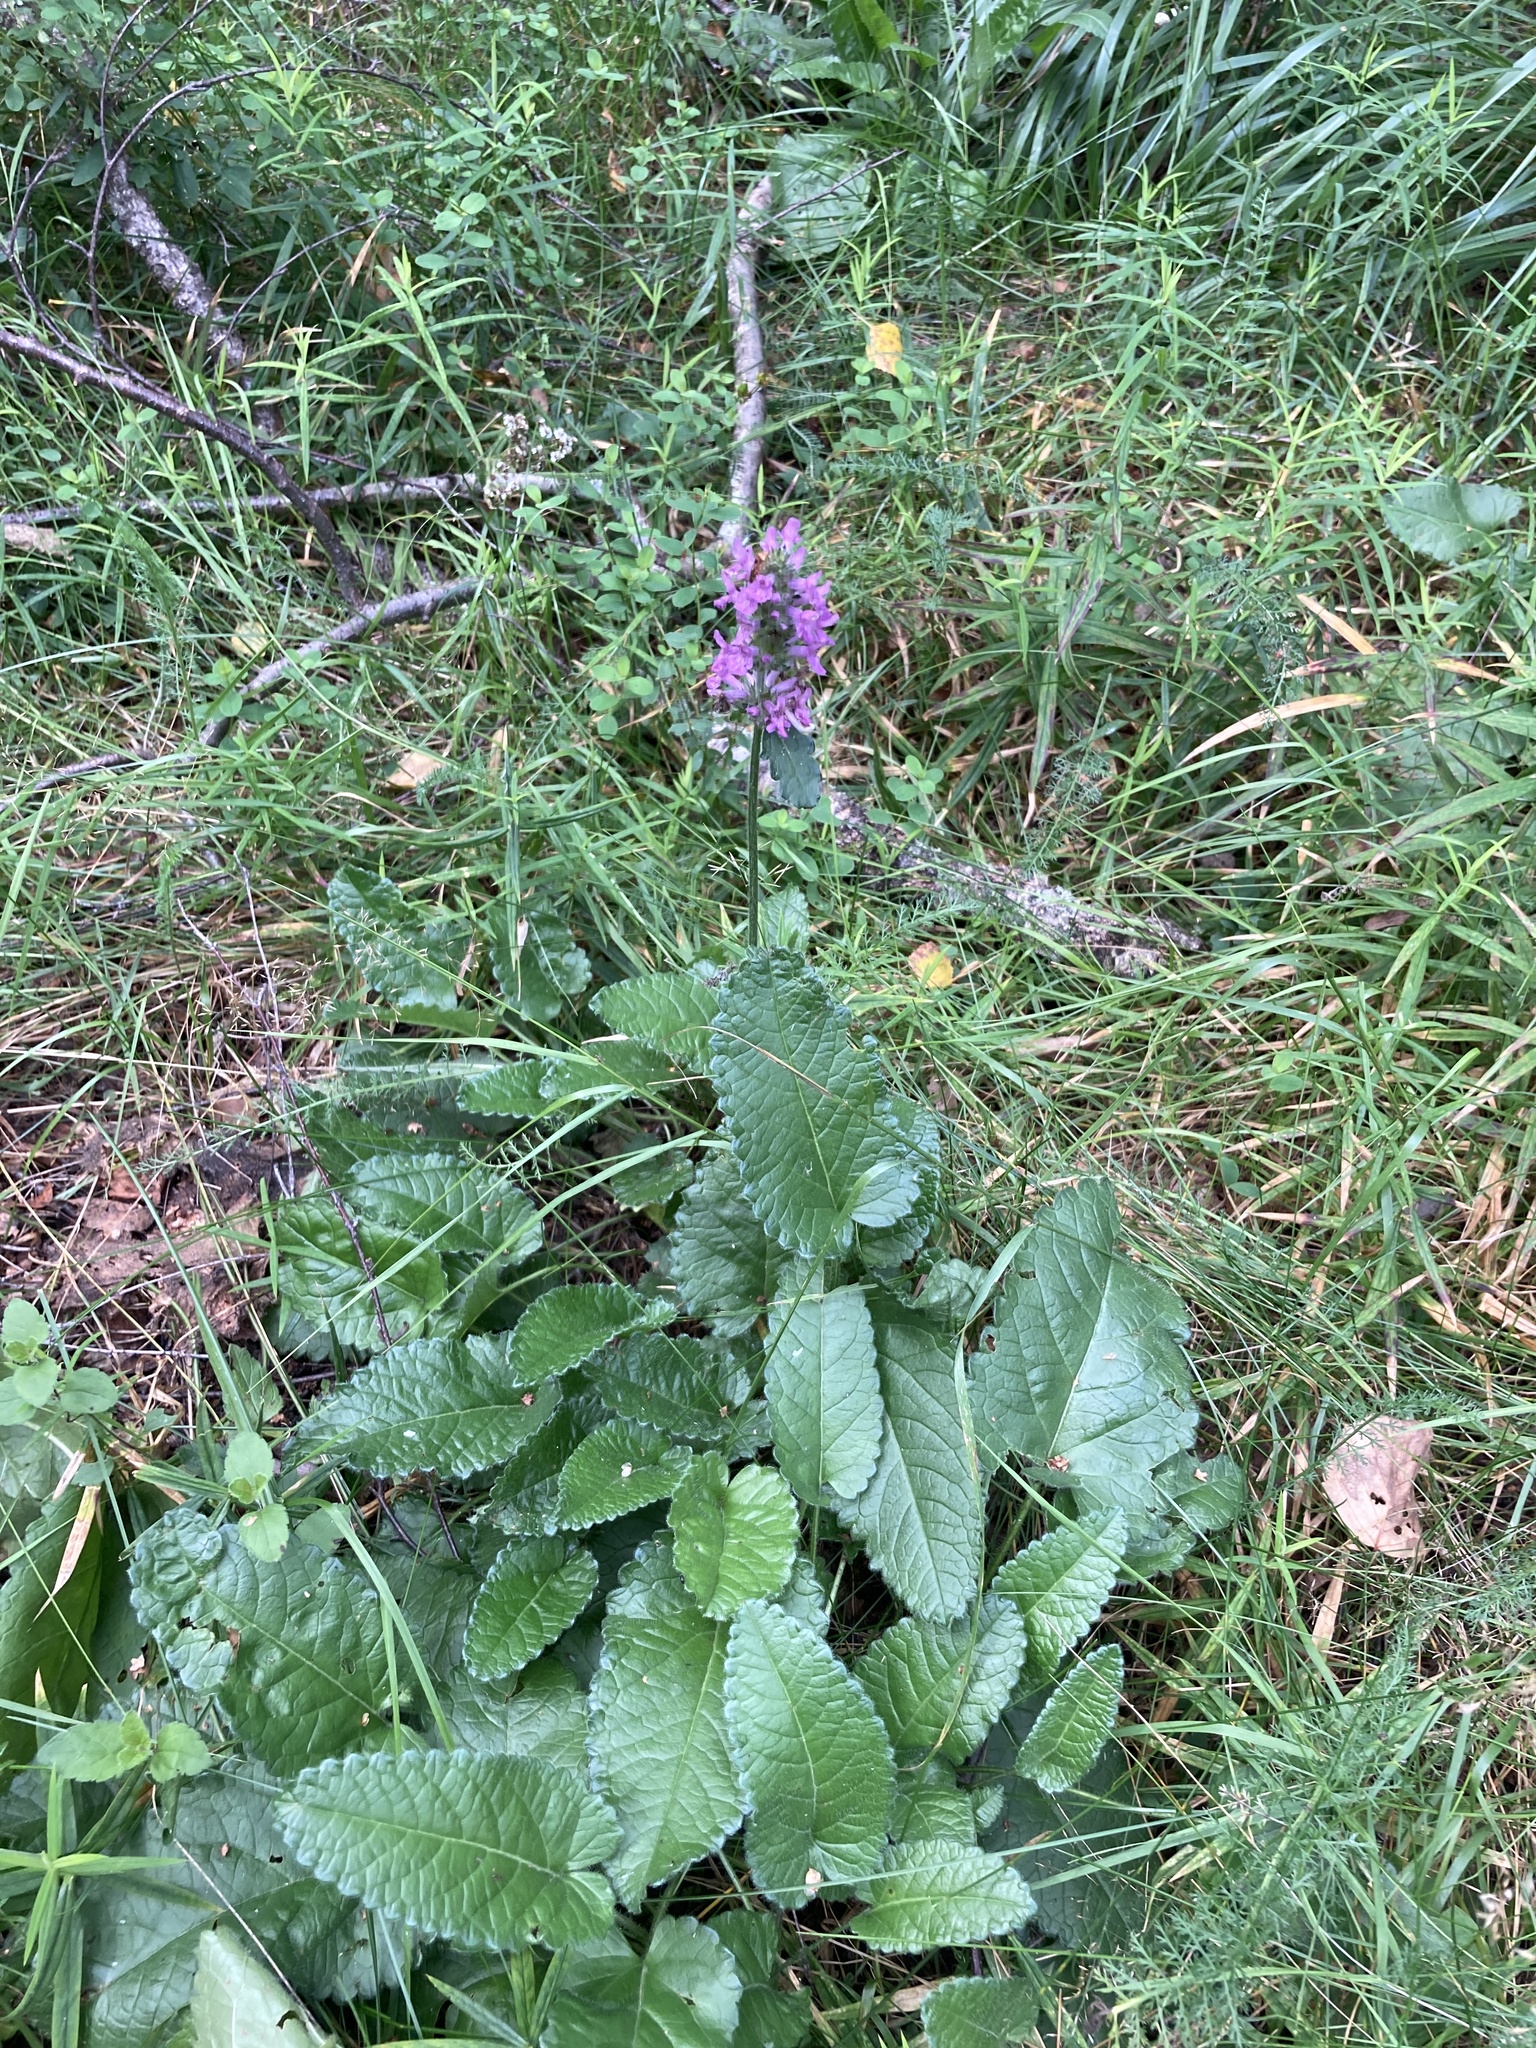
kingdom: Plantae
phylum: Tracheophyta
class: Magnoliopsida
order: Lamiales
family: Lamiaceae
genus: Betonica
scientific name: Betonica officinalis
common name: Bishop's-wort
